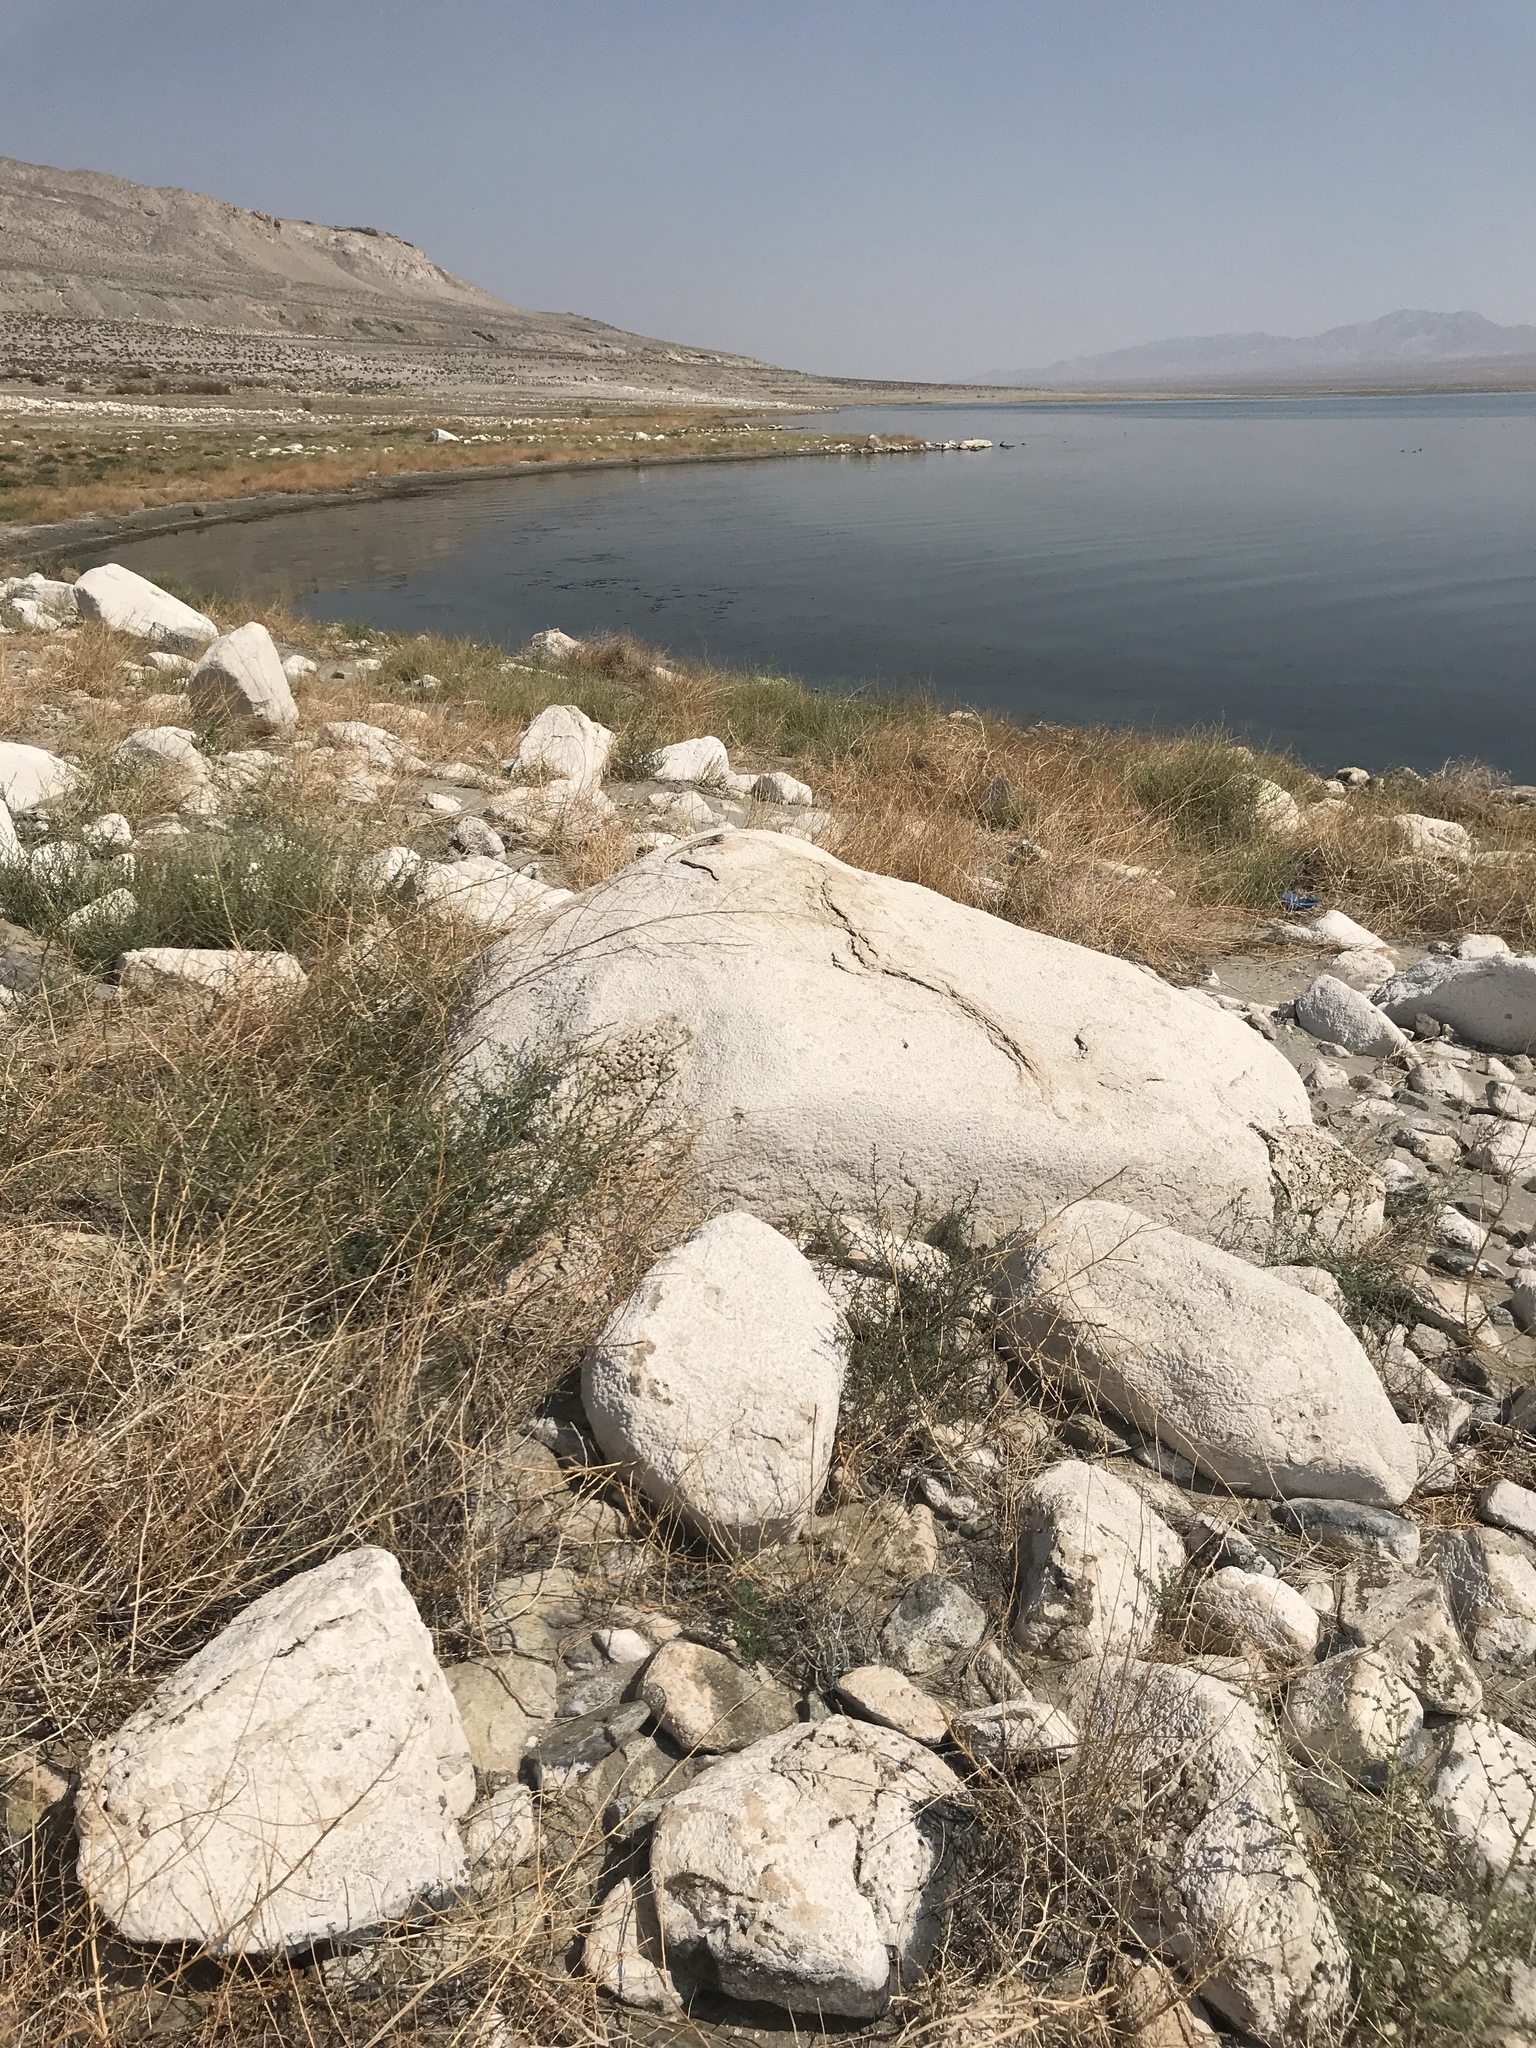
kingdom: Animalia
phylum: Chordata
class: Squamata
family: Phrynosomatidae
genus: Sceloporus
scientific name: Sceloporus uniformis
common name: Yellow-backed spiny lizard
